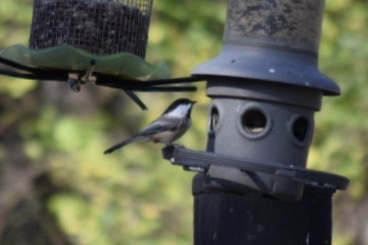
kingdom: Animalia
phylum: Chordata
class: Aves
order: Passeriformes
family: Paridae
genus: Poecile
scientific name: Poecile atricapillus
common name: Black-capped chickadee
